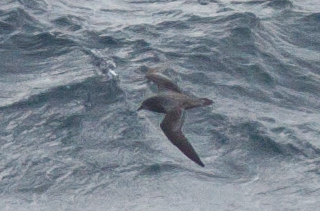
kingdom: Animalia
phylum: Chordata
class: Aves
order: Procellariiformes
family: Procellariidae
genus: Pterodroma
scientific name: Pterodroma ultima
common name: Murphy's petrel
